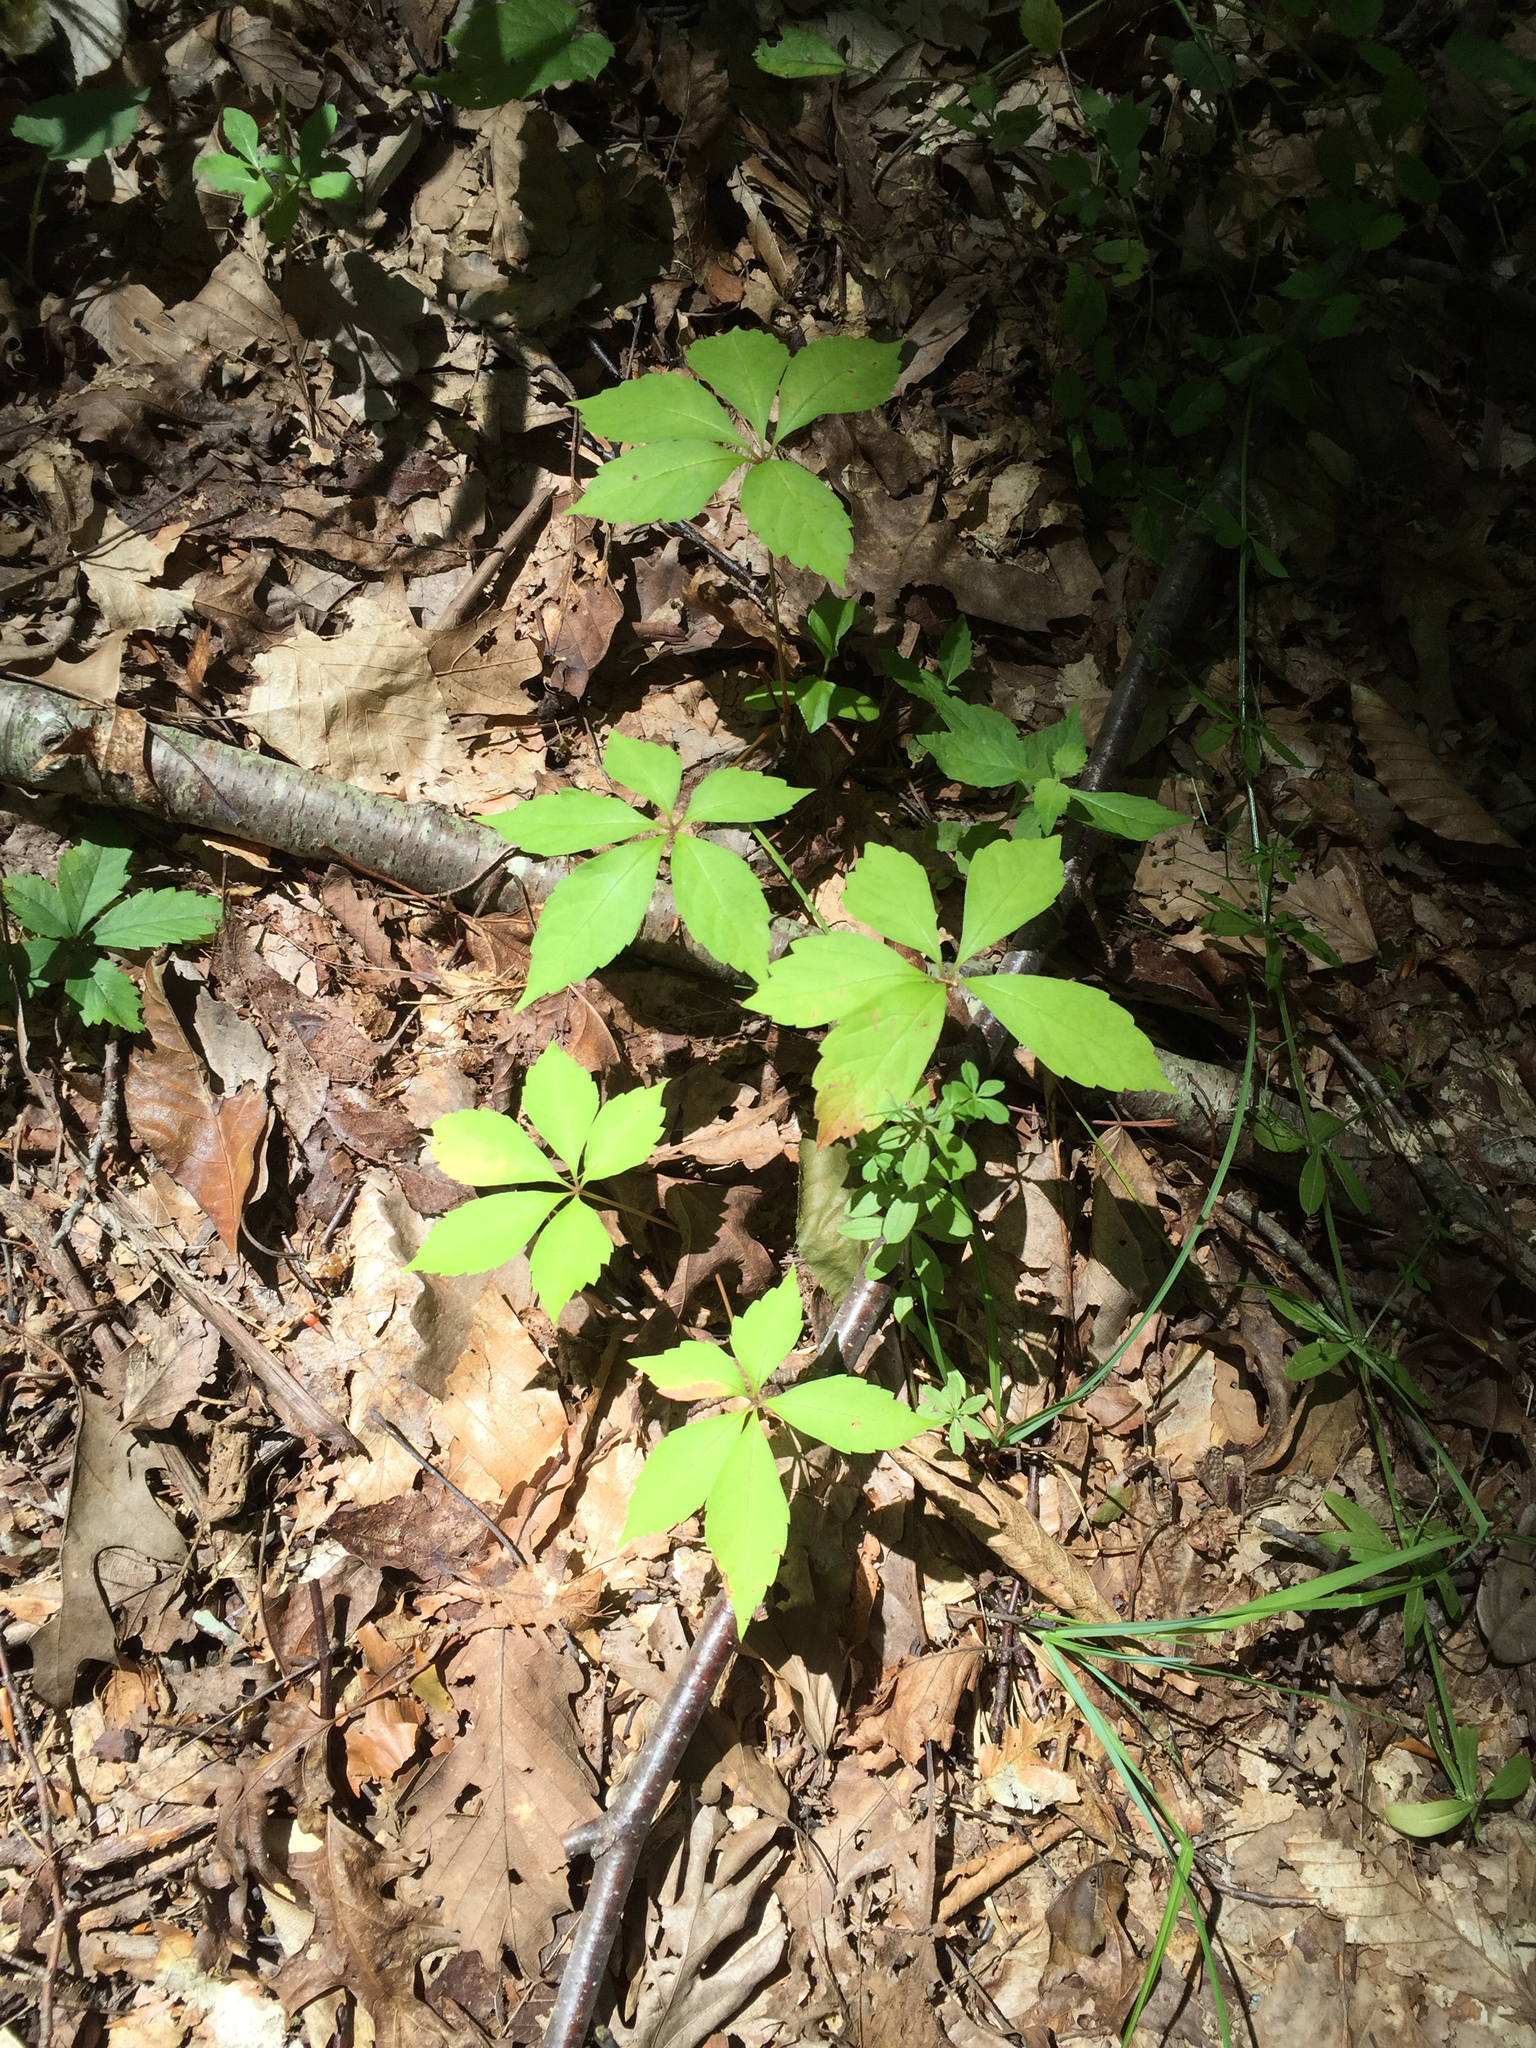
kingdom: Plantae
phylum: Tracheophyta
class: Magnoliopsida
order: Vitales
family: Vitaceae
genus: Parthenocissus
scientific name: Parthenocissus quinquefolia
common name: Virginia-creeper
